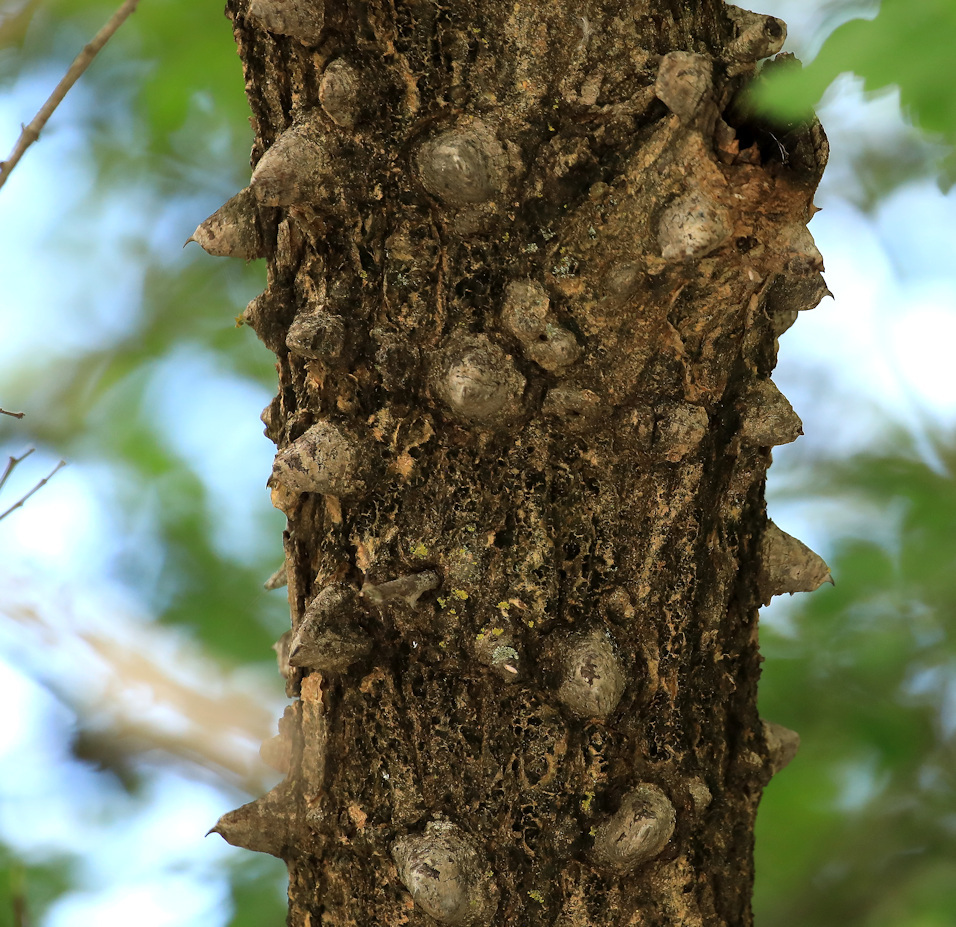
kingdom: Plantae
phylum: Tracheophyta
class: Magnoliopsida
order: Fabales
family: Fabaceae
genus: Senegalia
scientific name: Senegalia nigrescens
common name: Knobthorn
